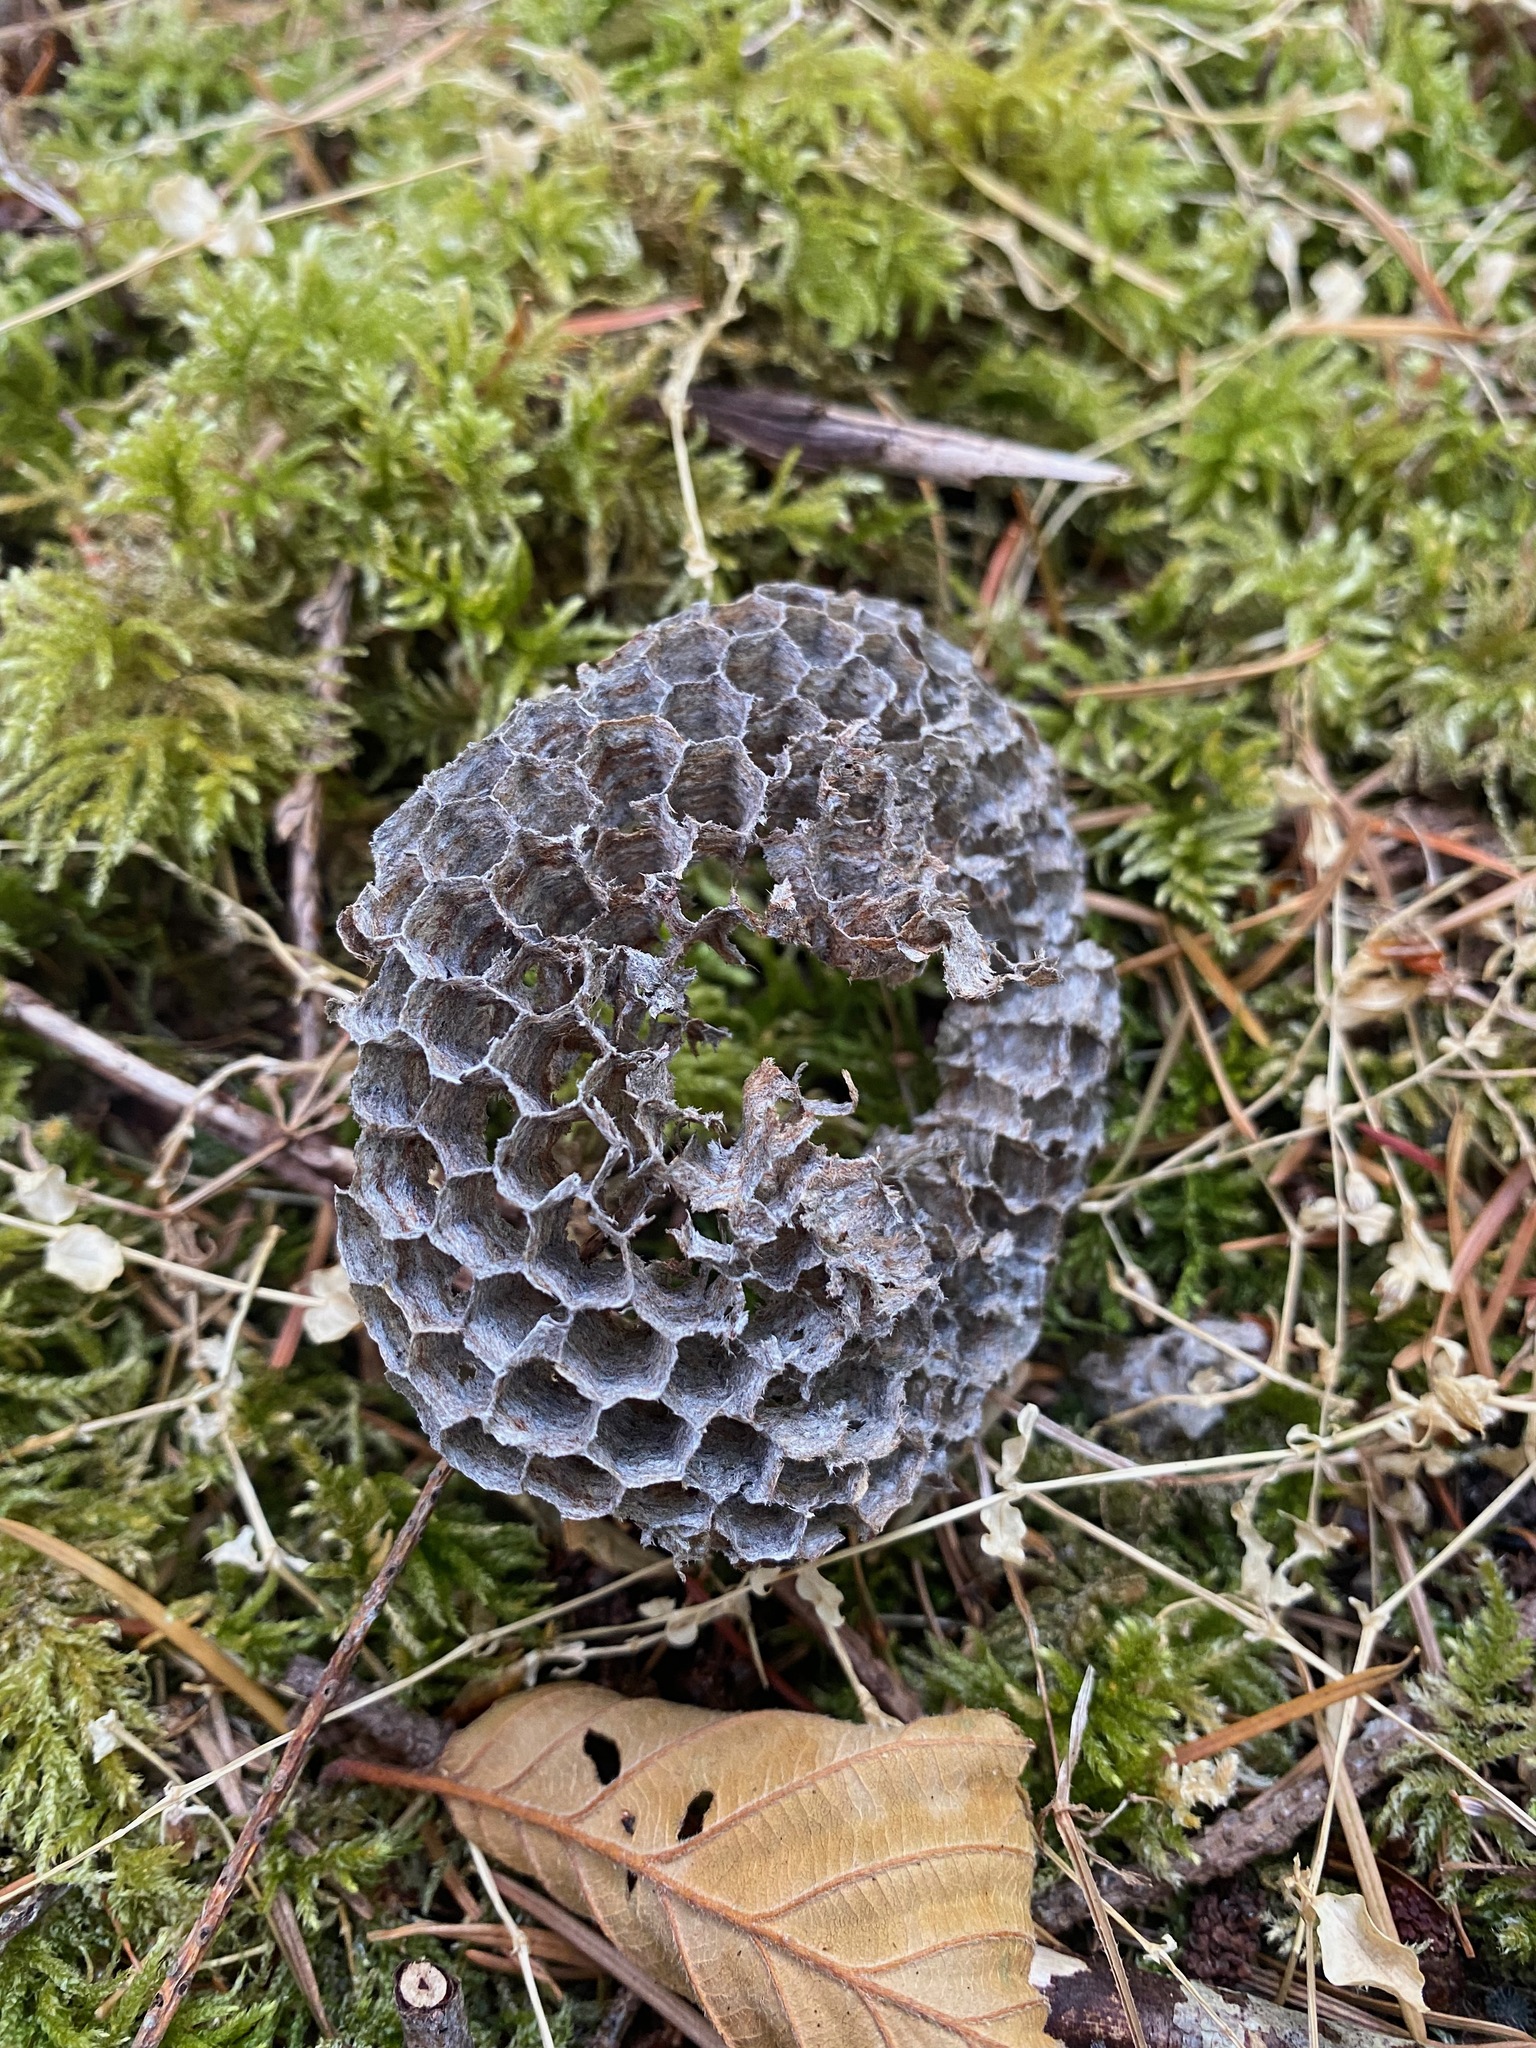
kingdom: Animalia
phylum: Arthropoda
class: Insecta
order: Hymenoptera
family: Eumenidae
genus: Polistes
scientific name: Polistes
